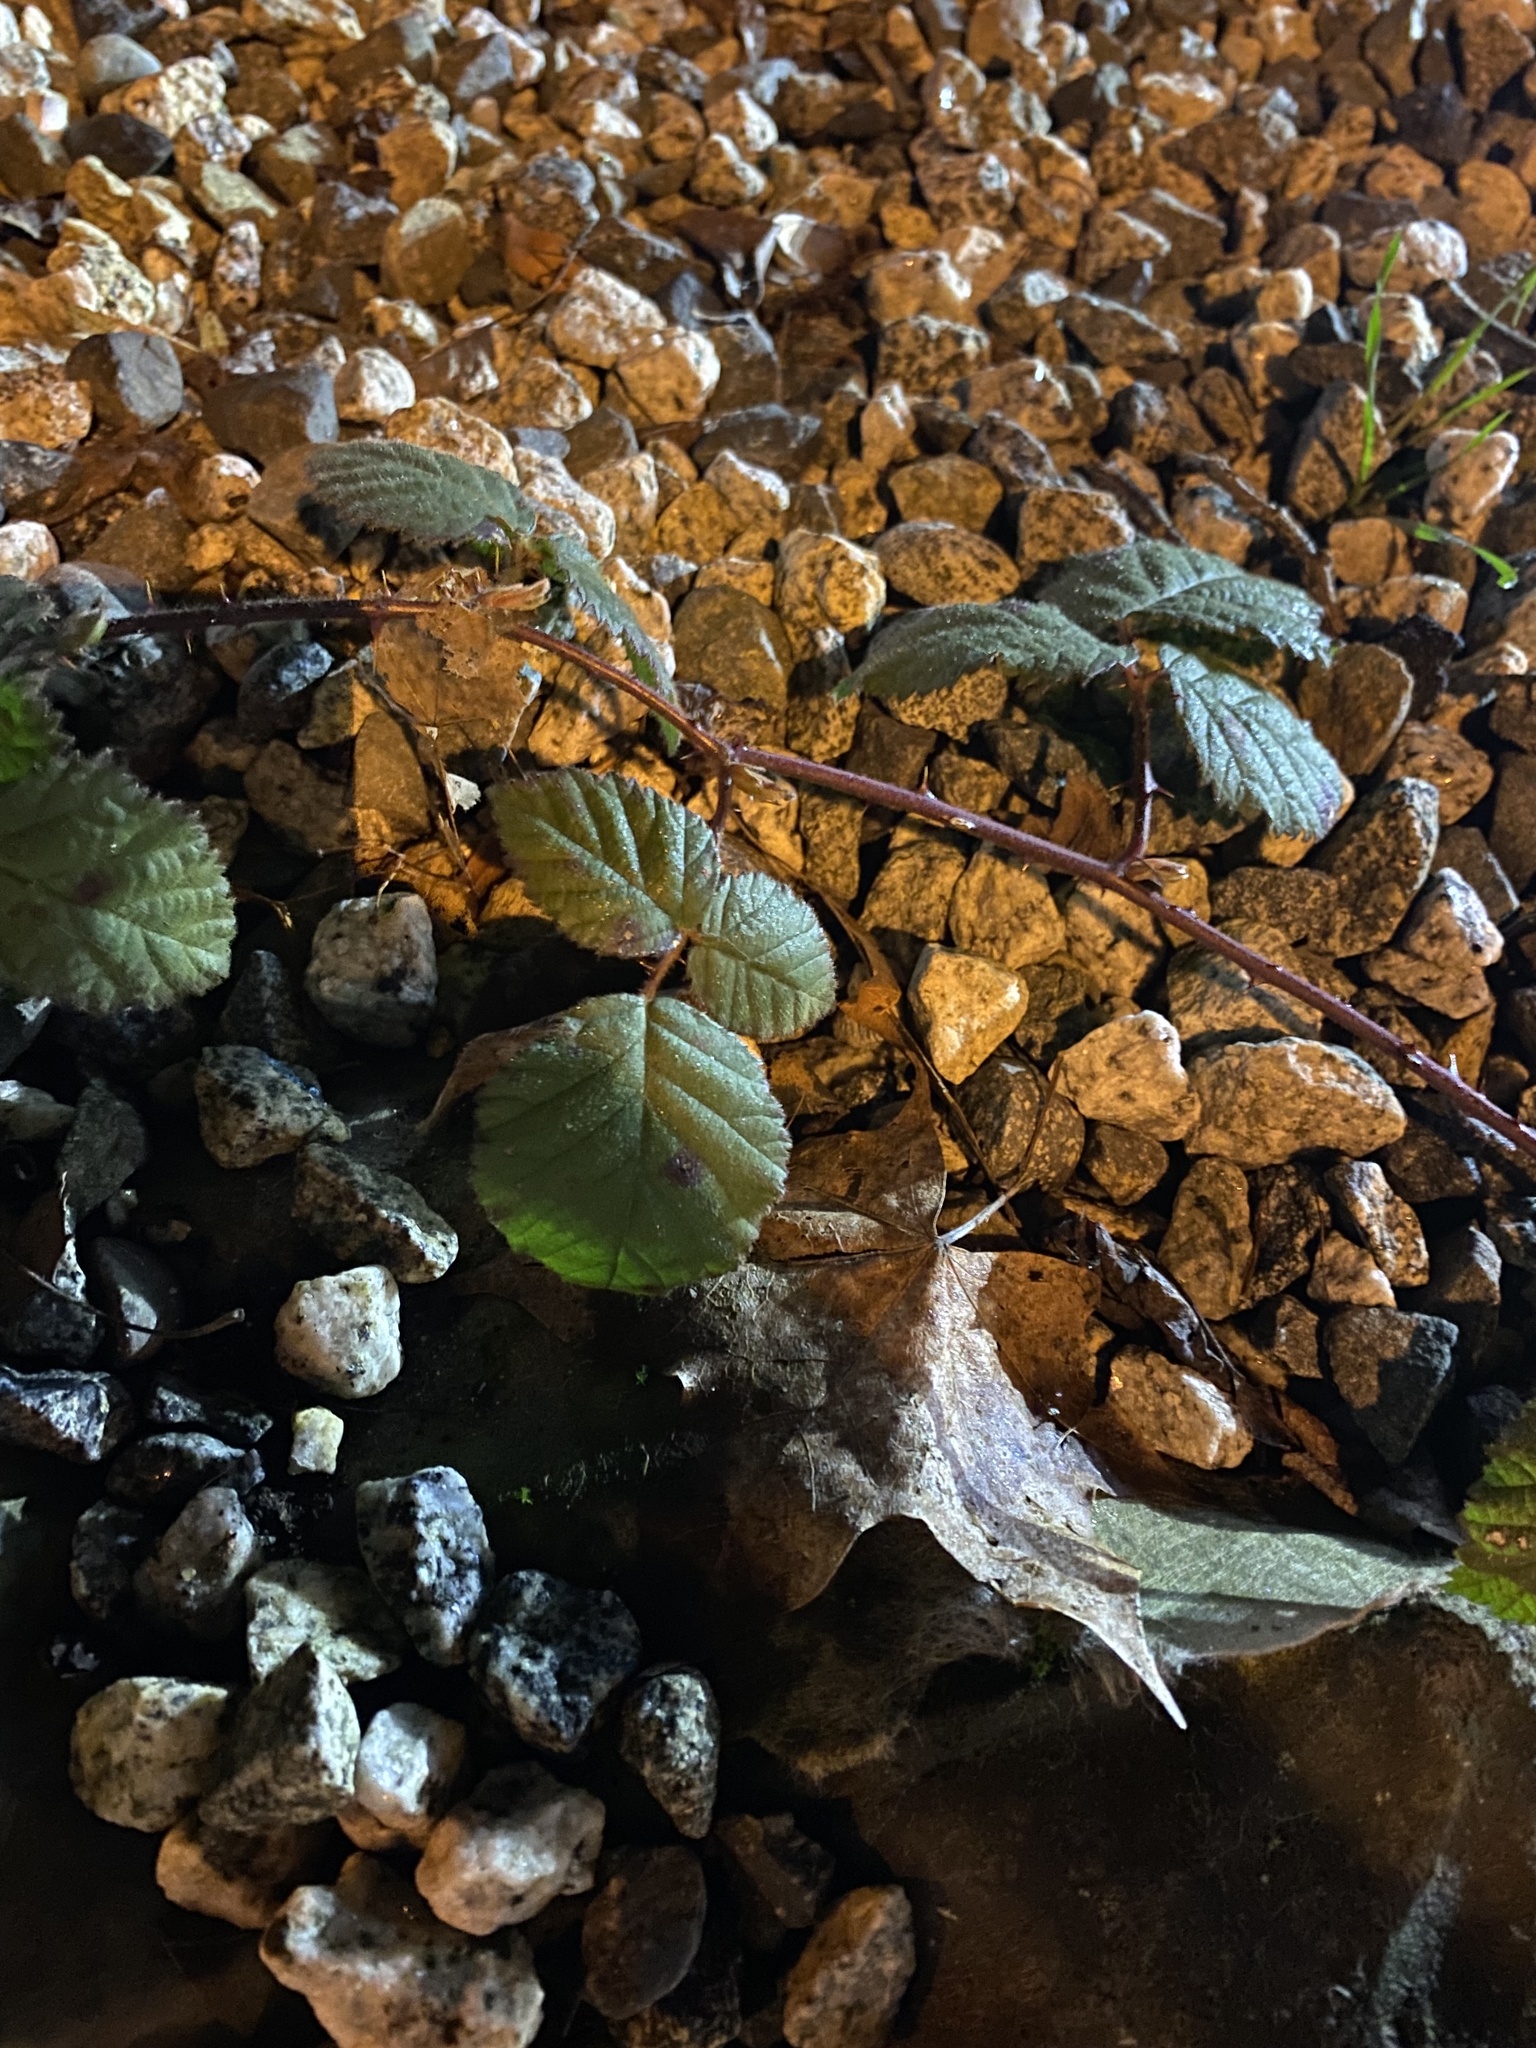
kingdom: Plantae
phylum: Tracheophyta
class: Magnoliopsida
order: Rosales
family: Rosaceae
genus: Rubus
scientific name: Rubus armeniacus
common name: Himalayan blackberry
